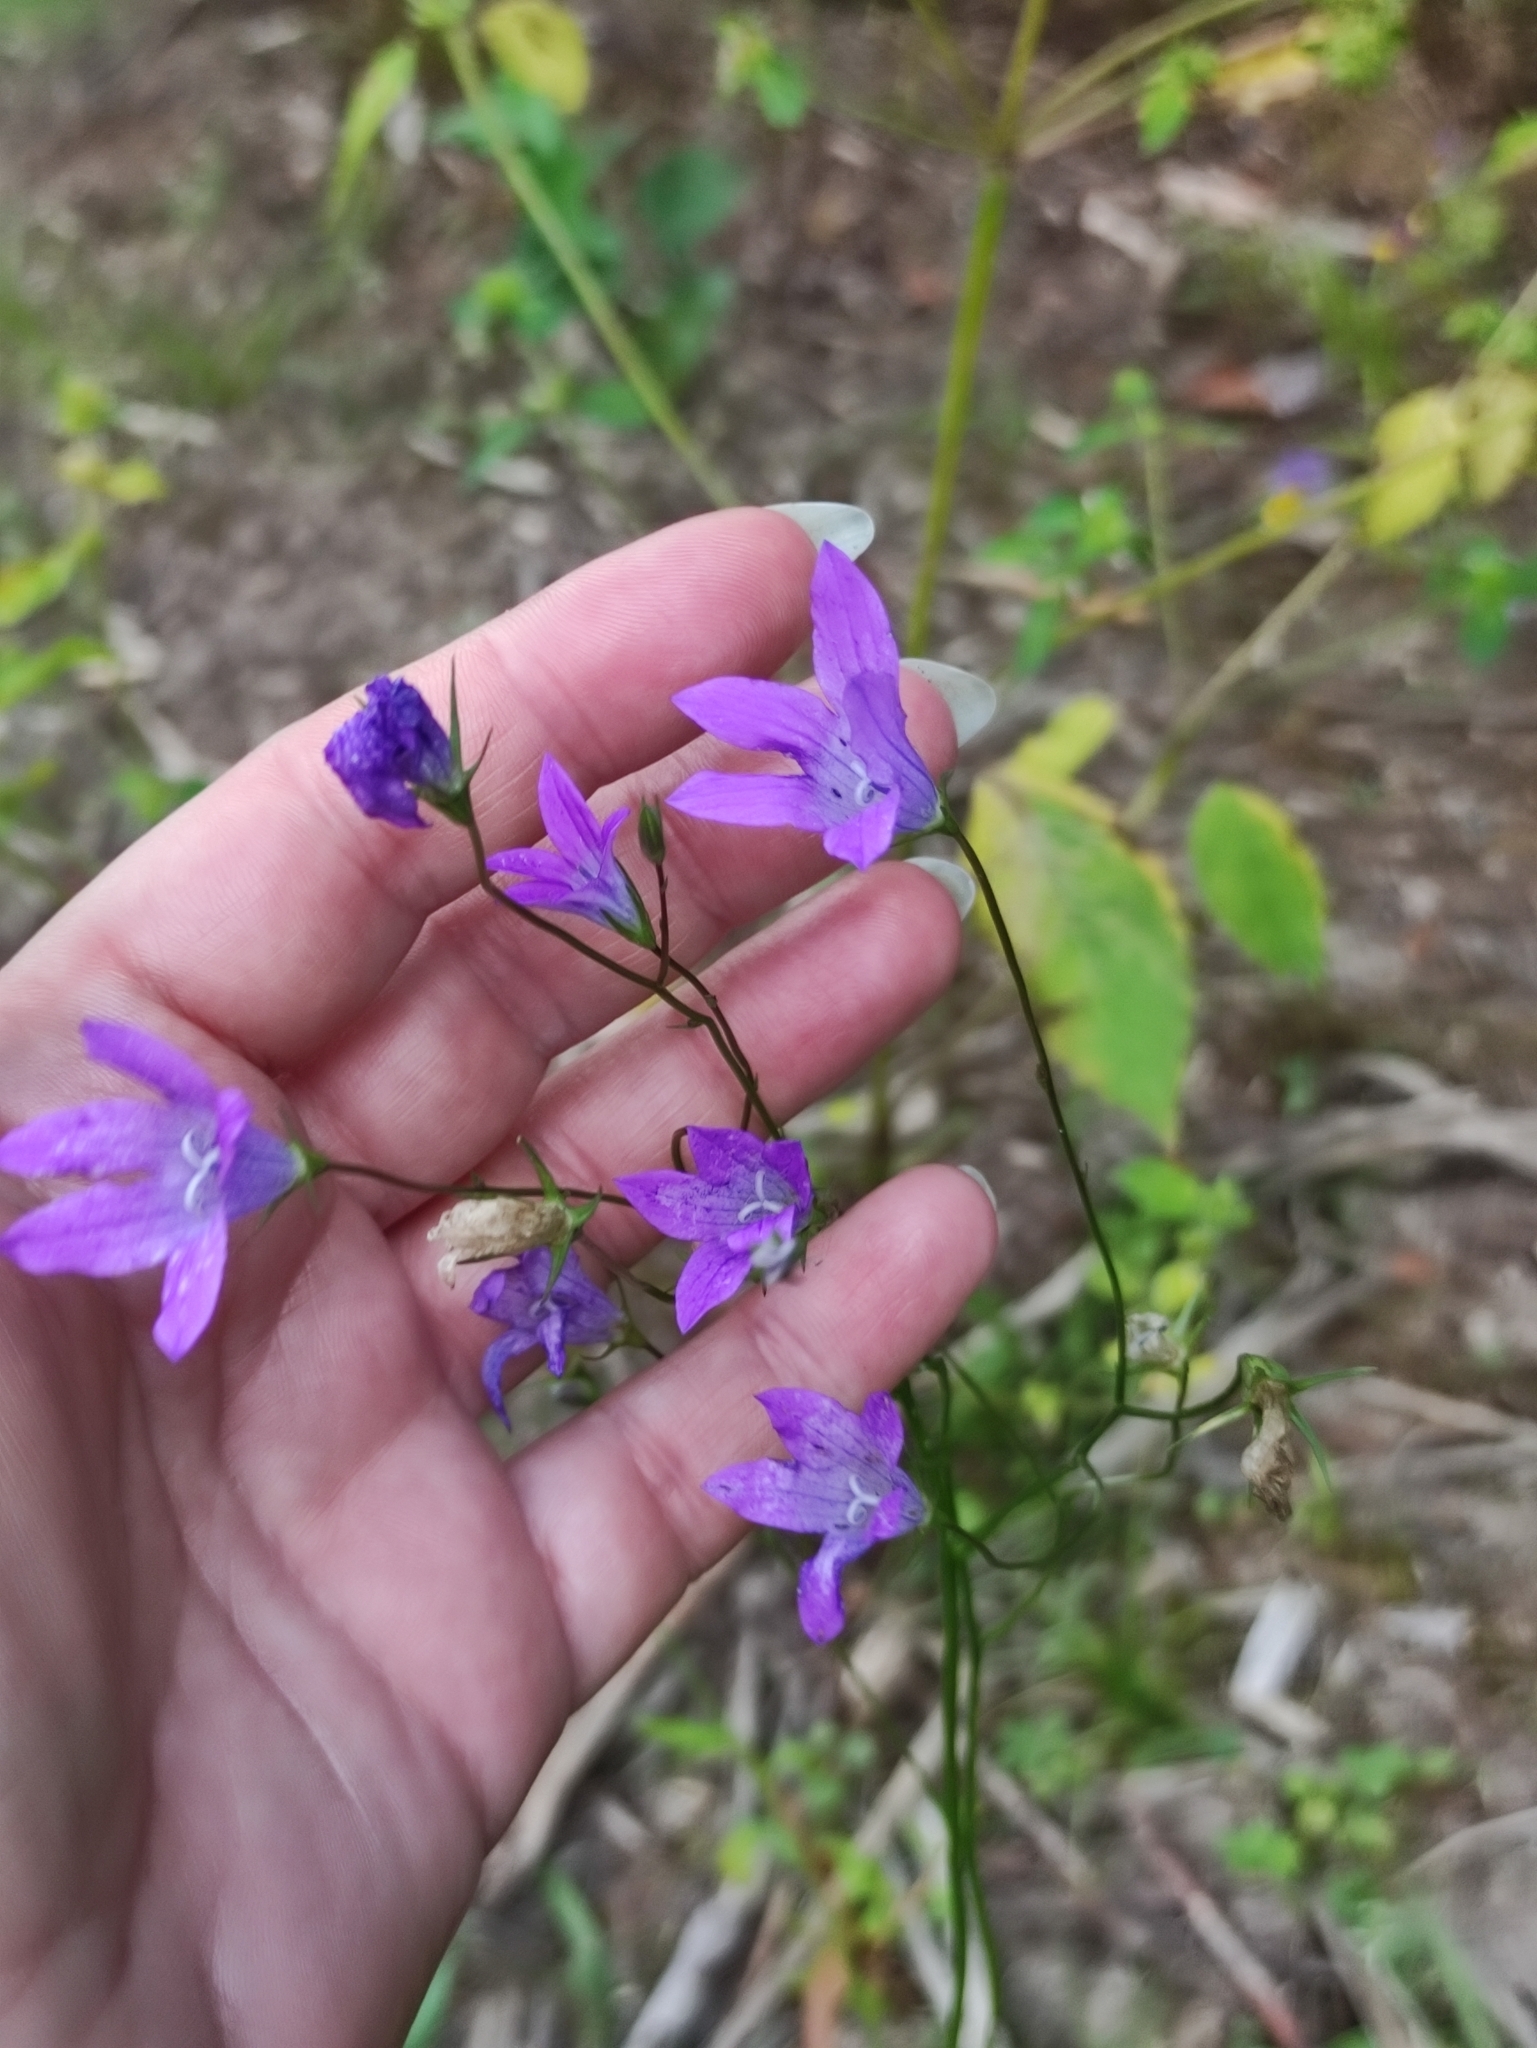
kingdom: Plantae
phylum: Tracheophyta
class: Magnoliopsida
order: Asterales
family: Campanulaceae
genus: Campanula
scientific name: Campanula patula
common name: Spreading bellflower
